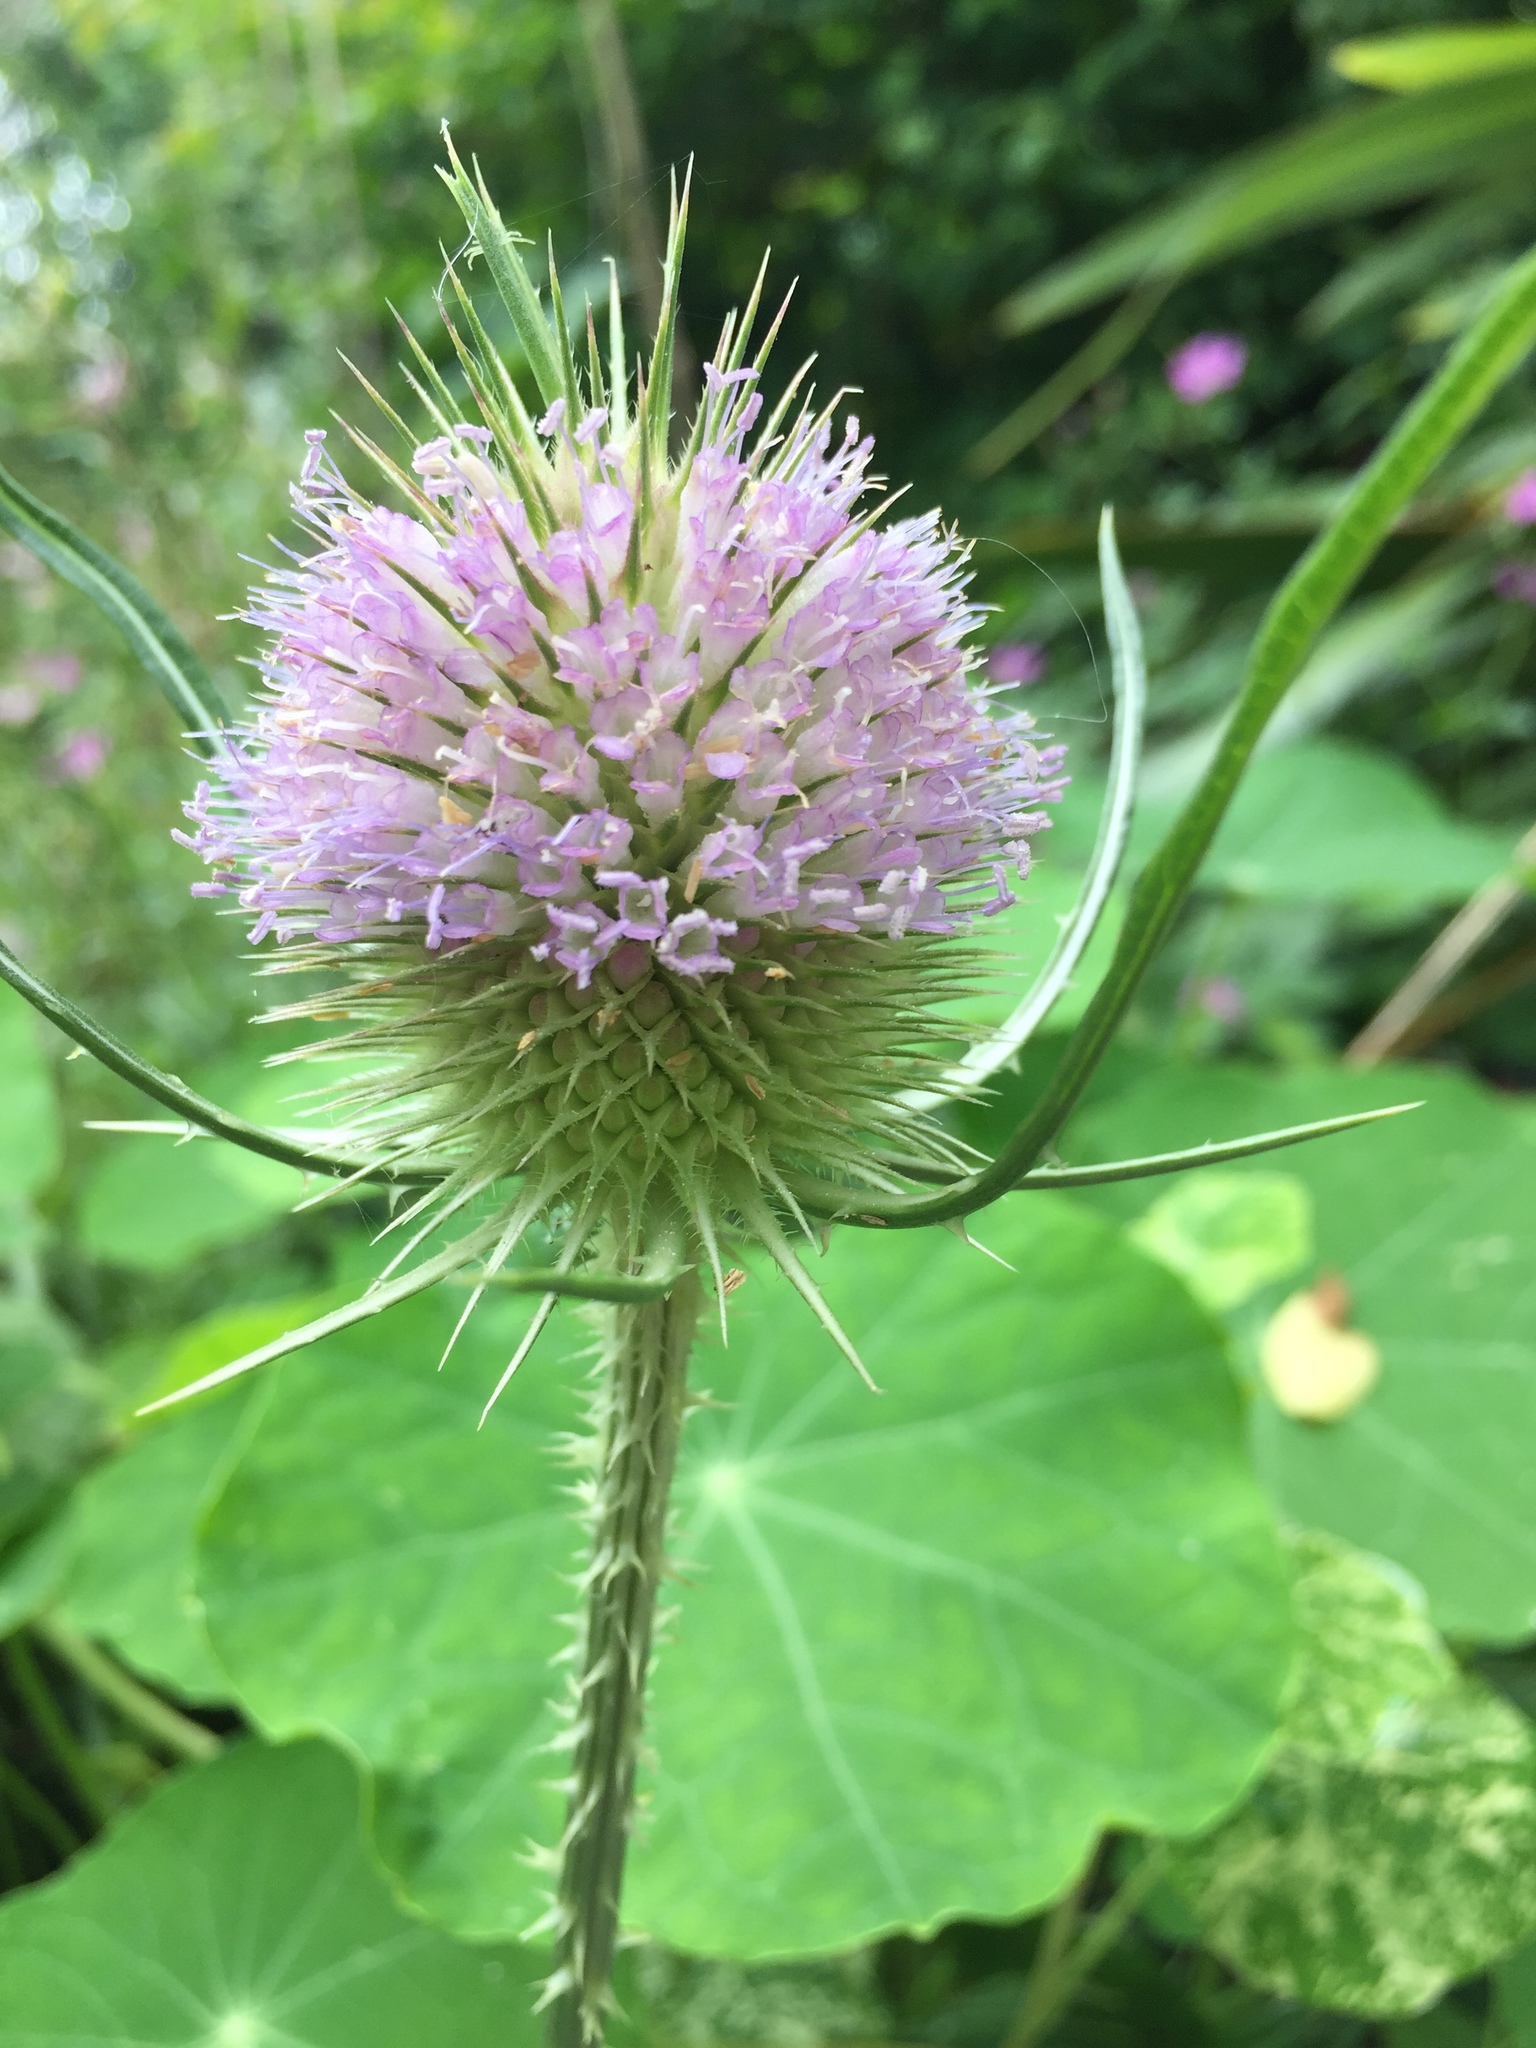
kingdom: Plantae
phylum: Tracheophyta
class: Magnoliopsida
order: Dipsacales
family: Caprifoliaceae
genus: Dipsacus
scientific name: Dipsacus fullonum
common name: Teasel
